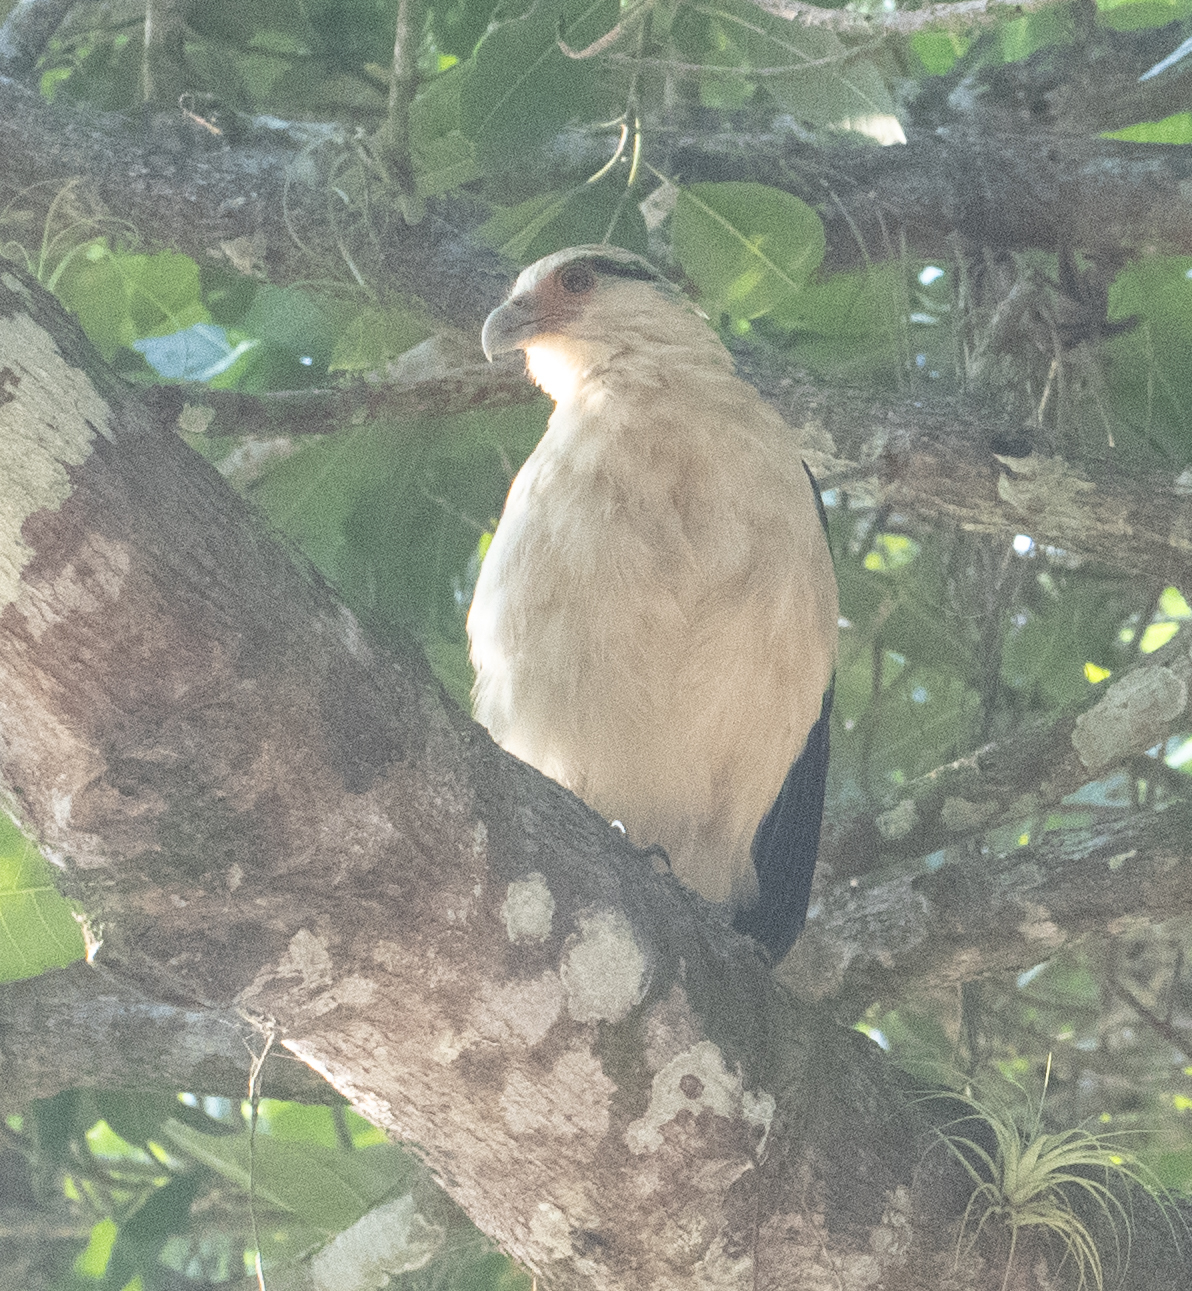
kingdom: Animalia
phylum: Chordata
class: Aves
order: Falconiformes
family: Falconidae
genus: Daptrius
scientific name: Daptrius
